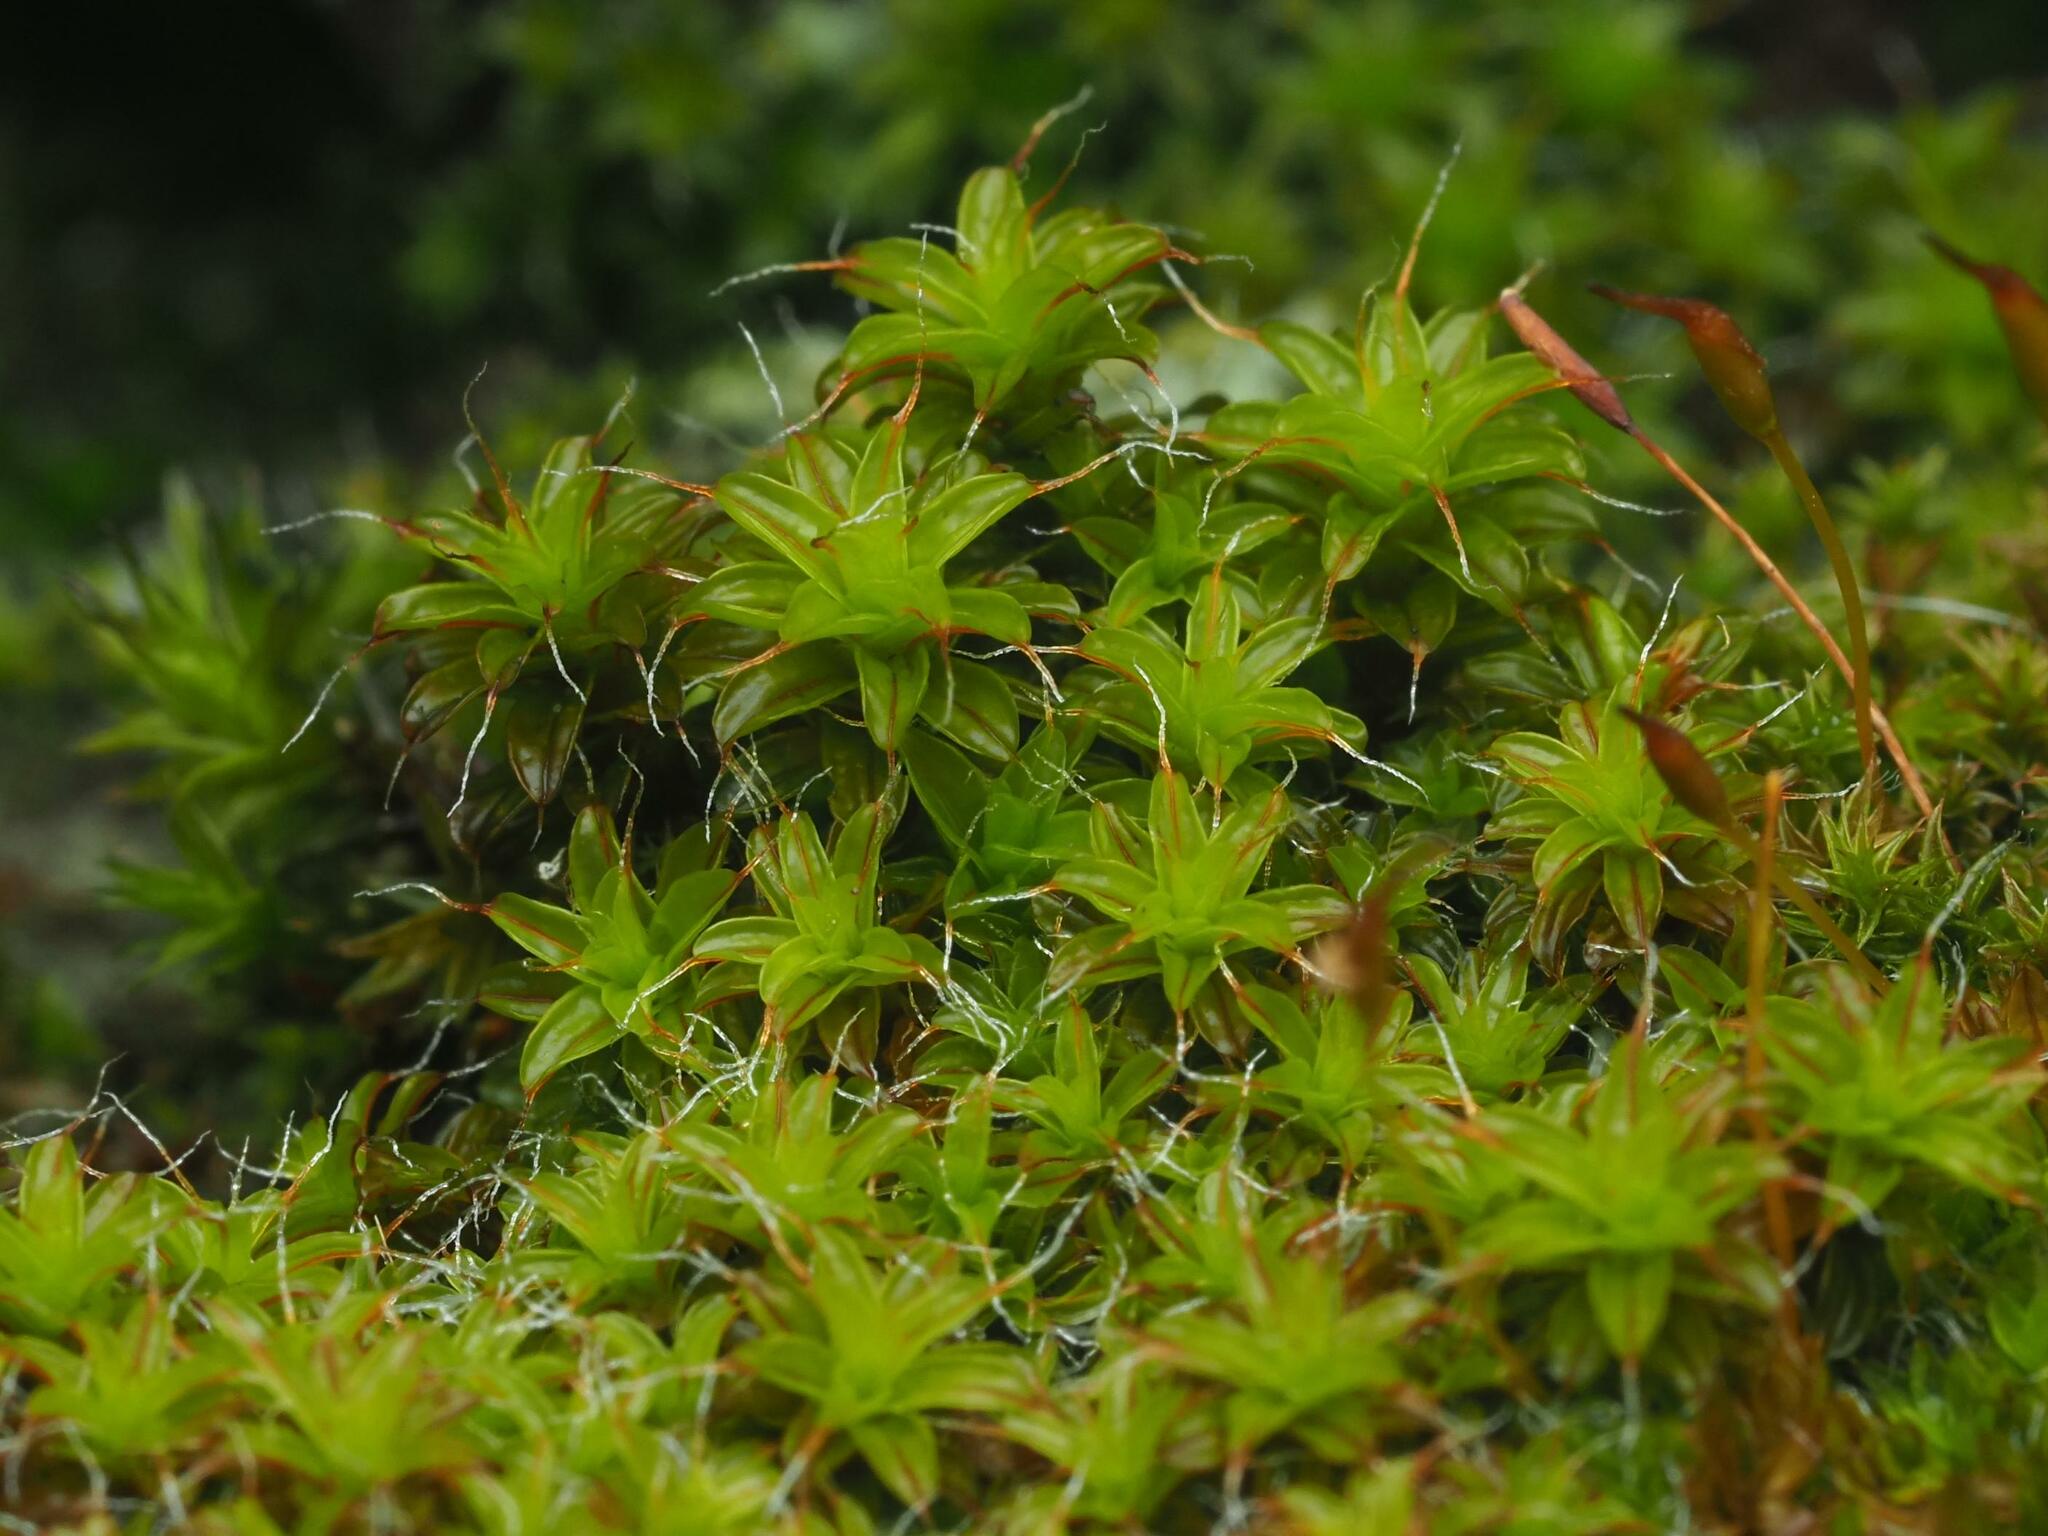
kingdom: Plantae
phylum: Bryophyta
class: Bryopsida
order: Pottiales
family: Pottiaceae
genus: Syntrichia
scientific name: Syntrichia ruralis
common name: Sidewalk screw moss
